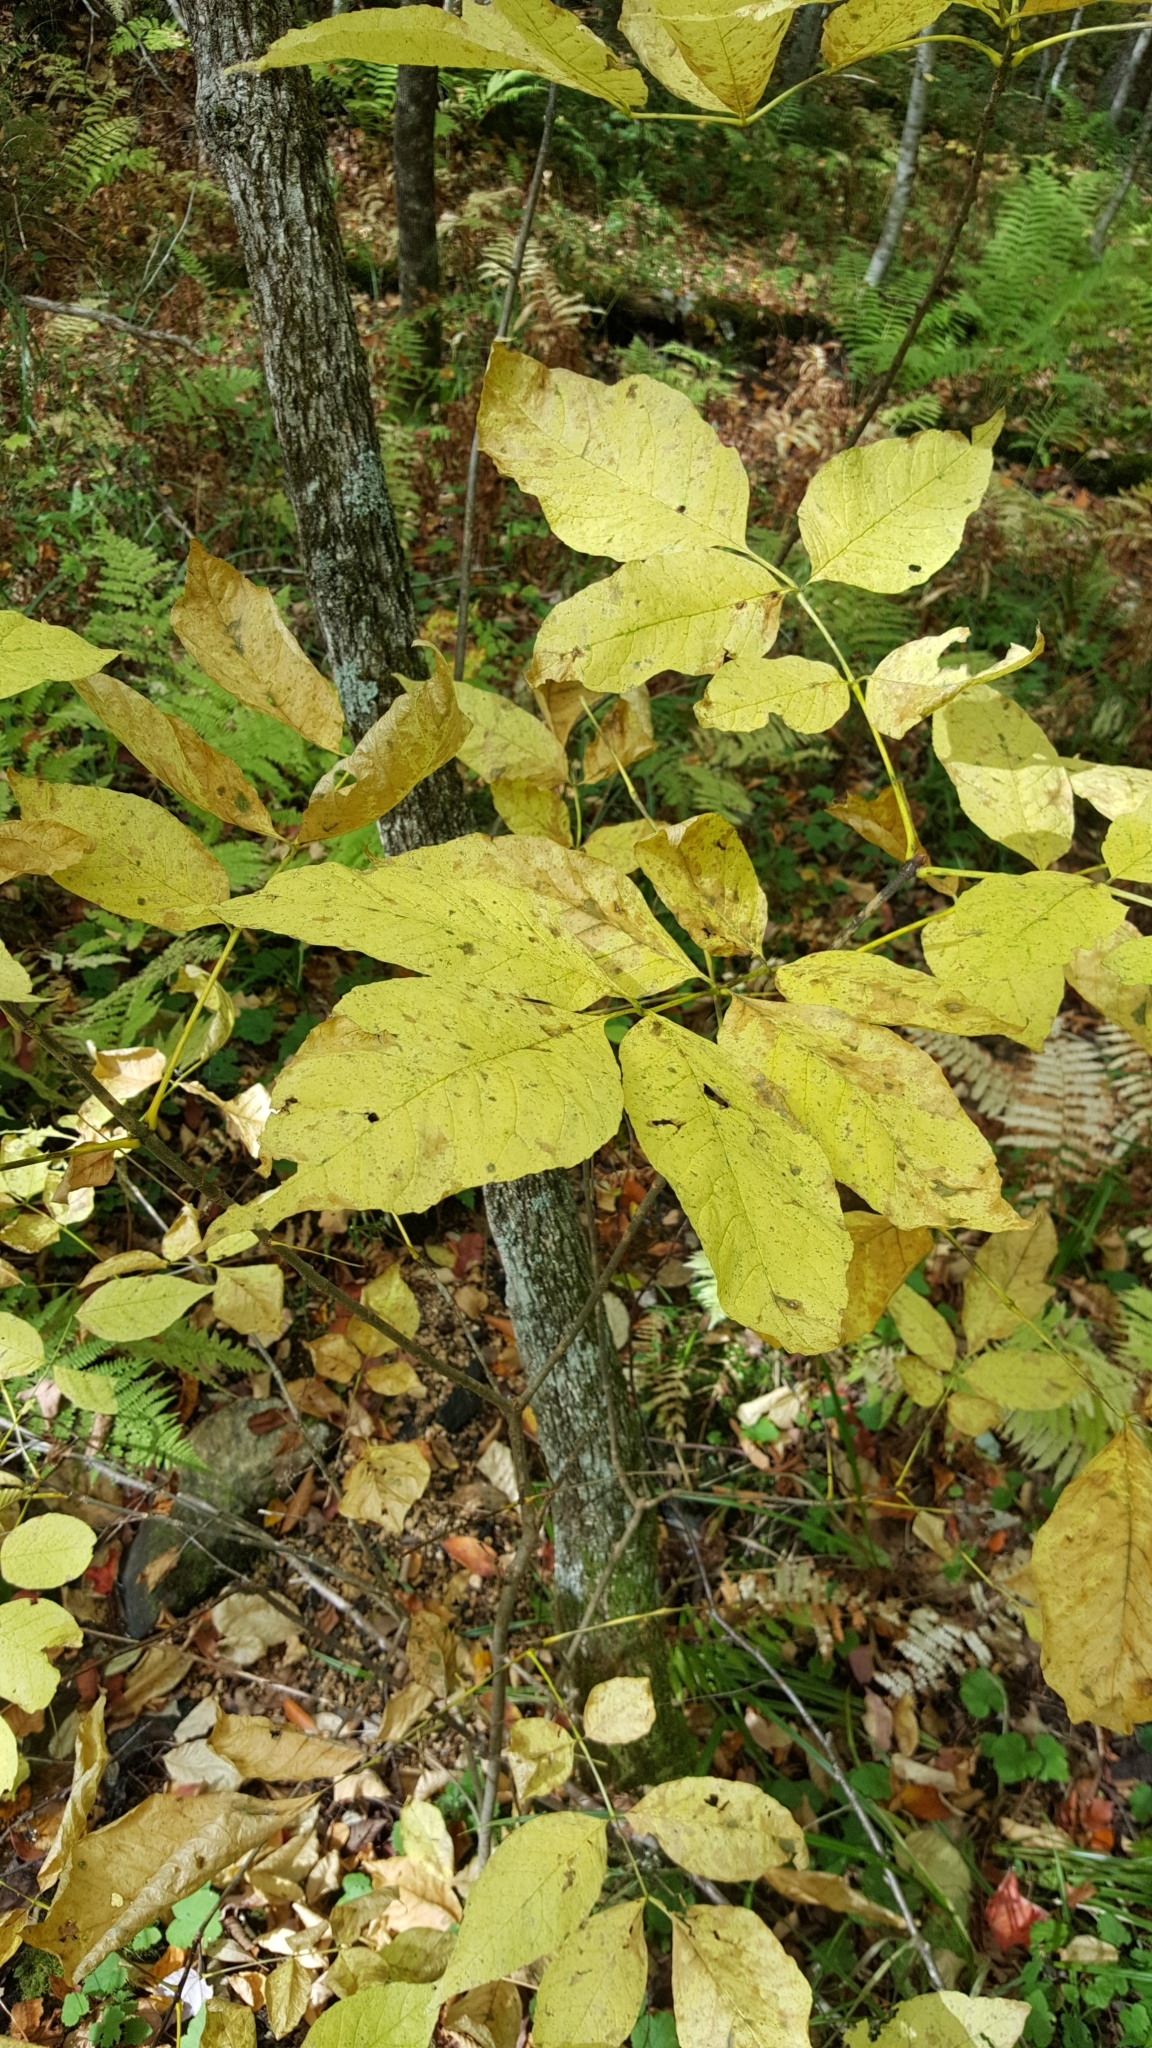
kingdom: Plantae
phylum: Tracheophyta
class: Magnoliopsida
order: Lamiales
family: Oleaceae
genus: Fraxinus
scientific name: Fraxinus americana
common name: White ash
